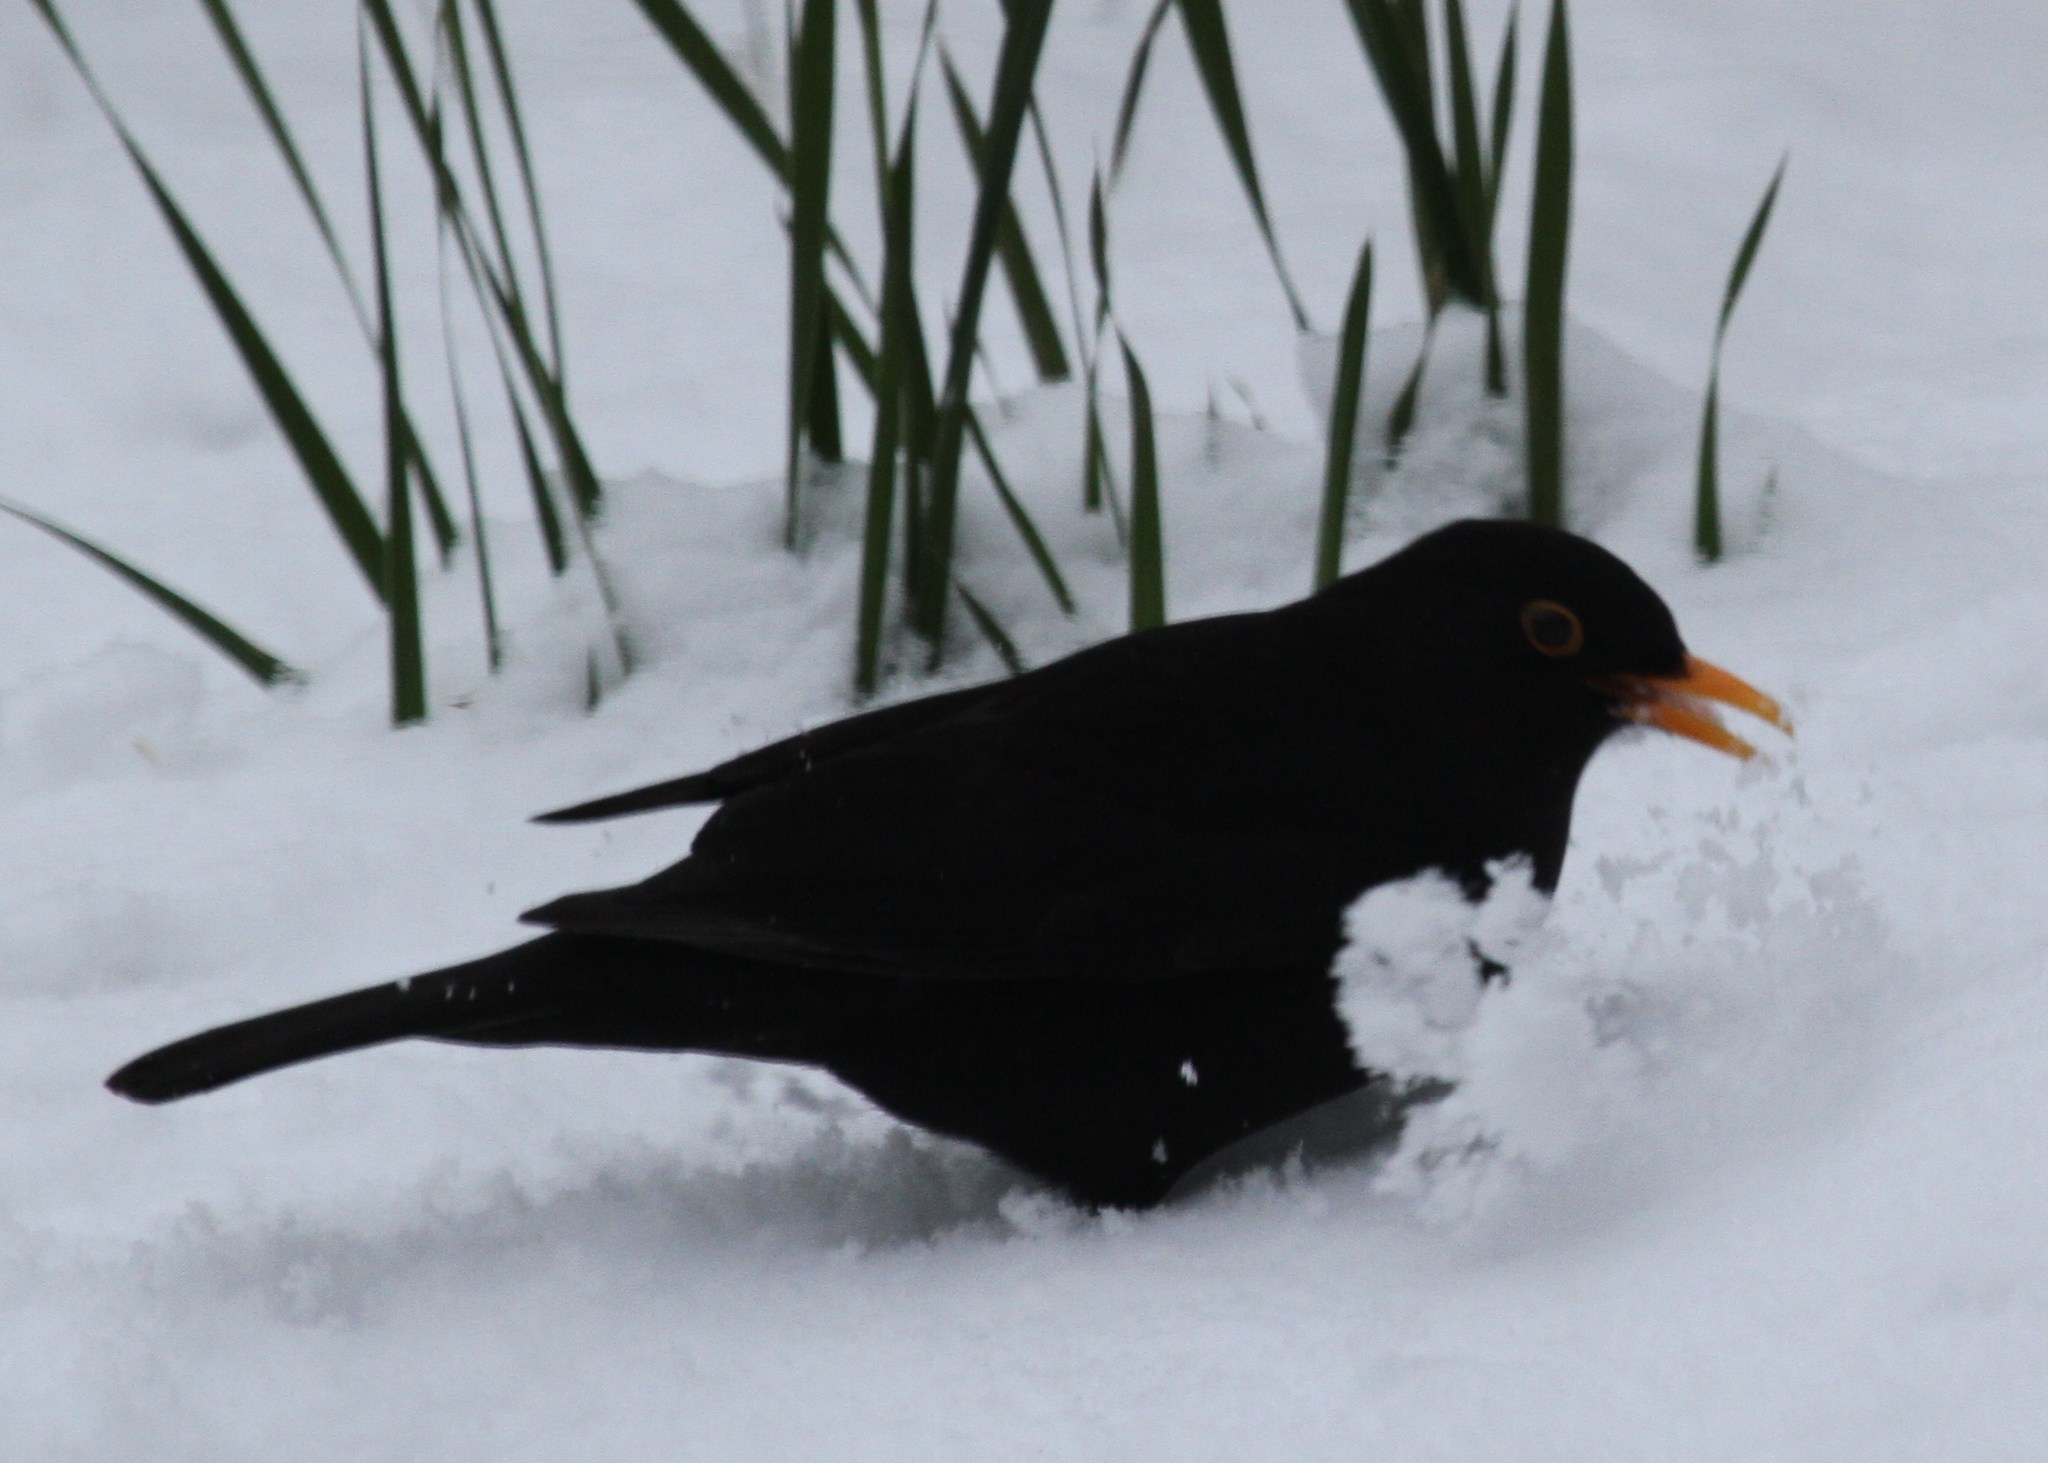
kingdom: Animalia
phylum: Chordata
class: Aves
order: Passeriformes
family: Turdidae
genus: Turdus
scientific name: Turdus merula
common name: Common blackbird
